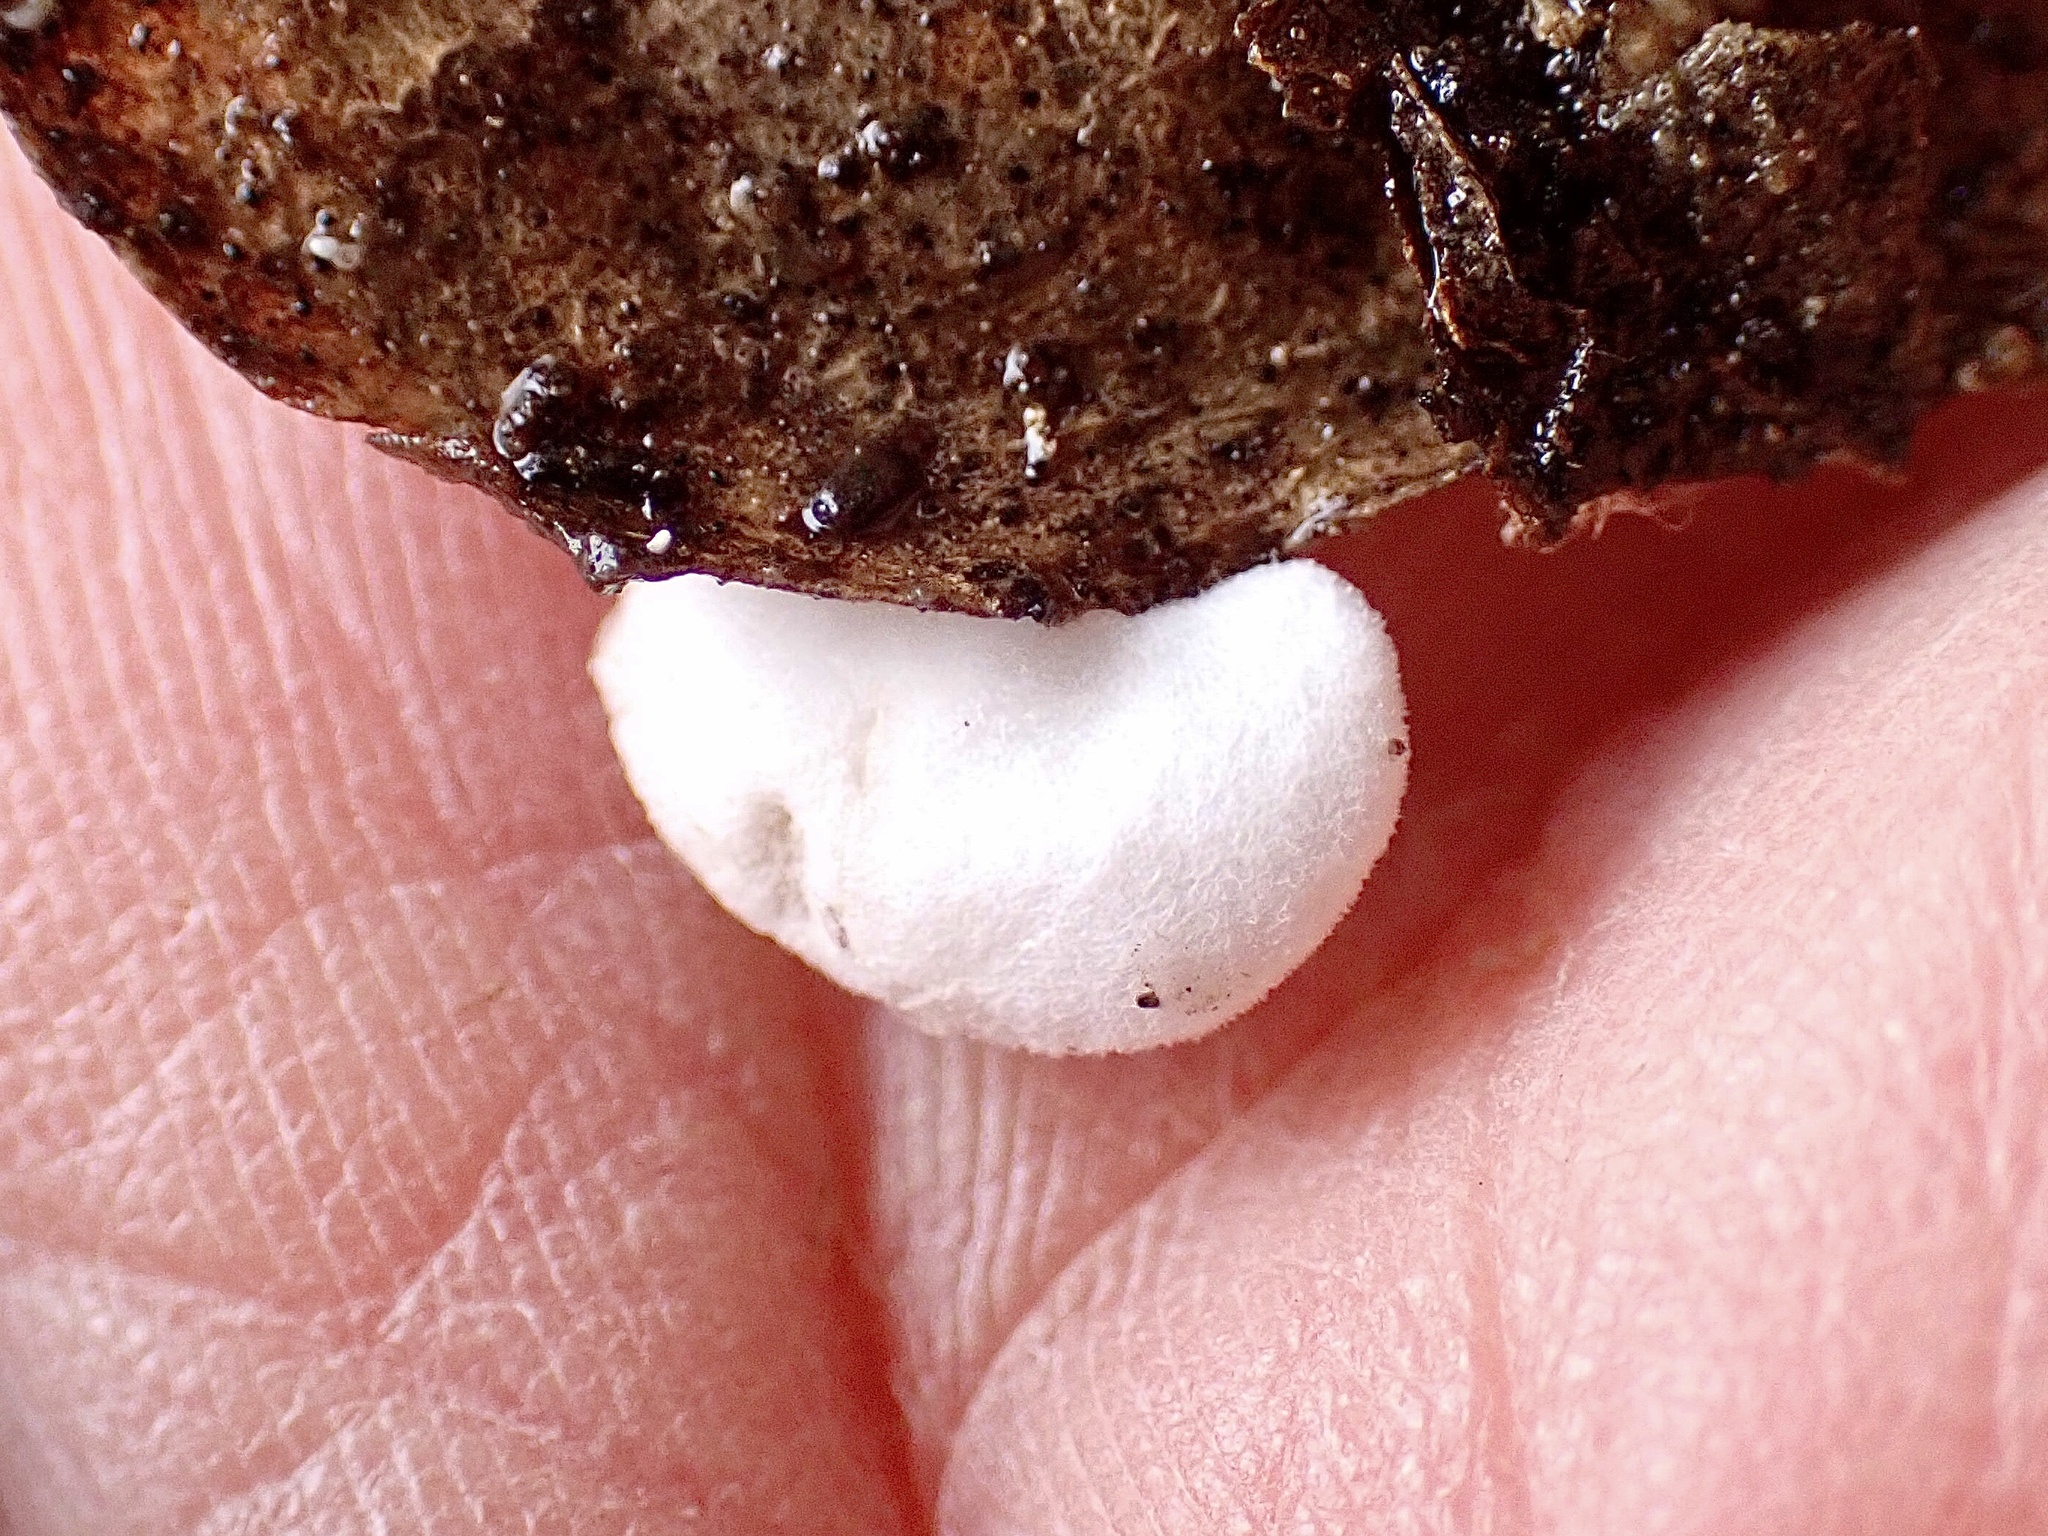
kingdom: Fungi
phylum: Basidiomycota
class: Agaricomycetes
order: Agaricales
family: Entolomataceae
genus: Clitopilus
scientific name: Clitopilus hobsonii
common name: Miller's oysterling
